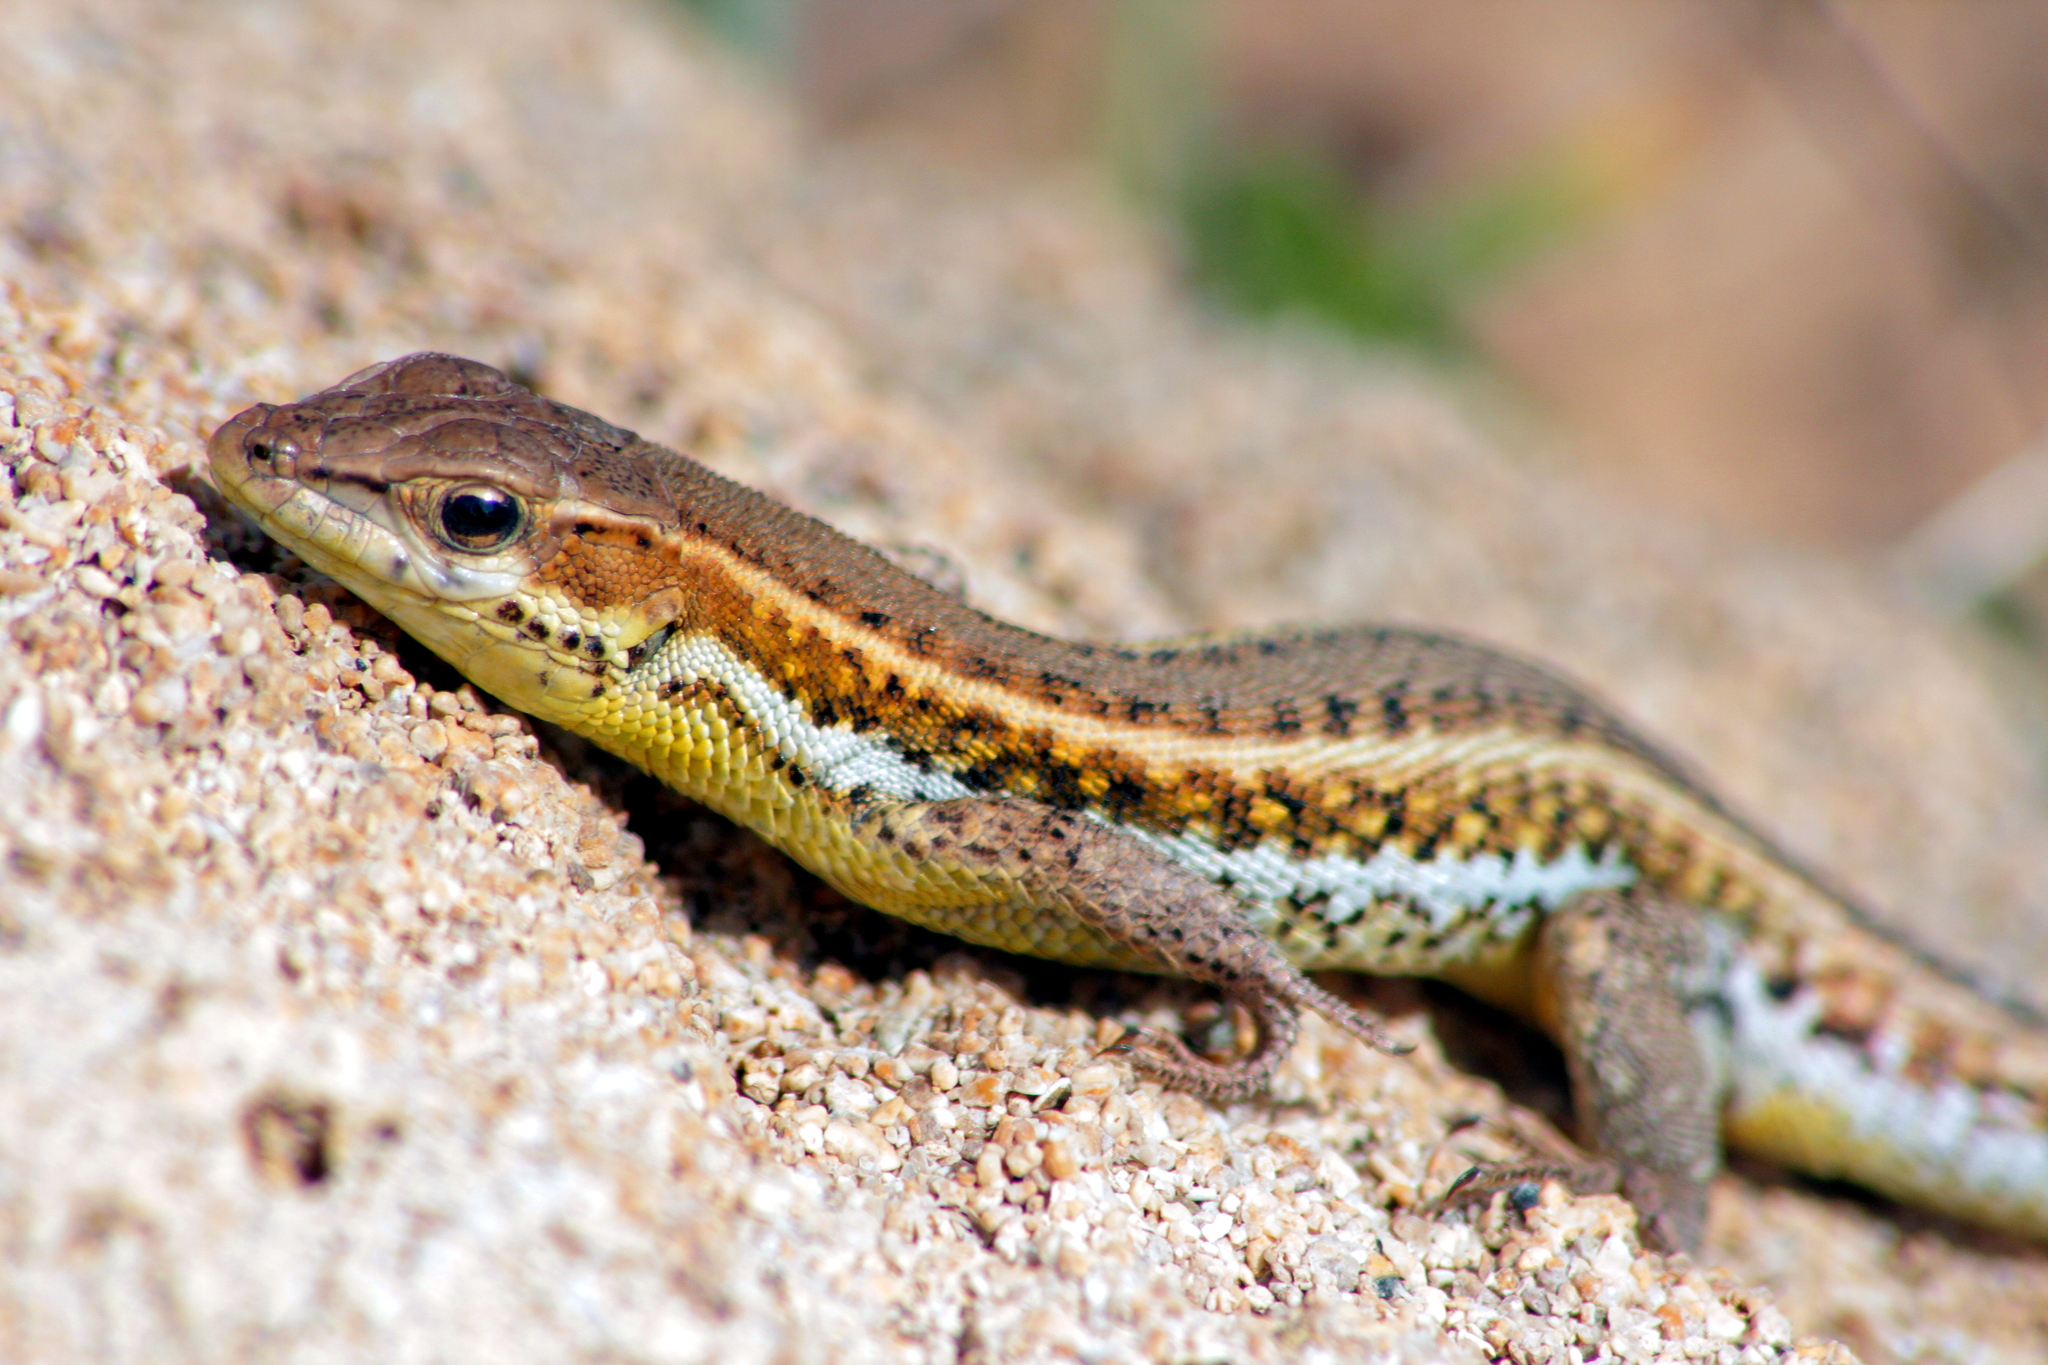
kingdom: Animalia
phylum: Chordata
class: Squamata
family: Lacertidae
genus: Ophisops
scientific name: Ophisops elegans
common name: Snake-eyed lizard
